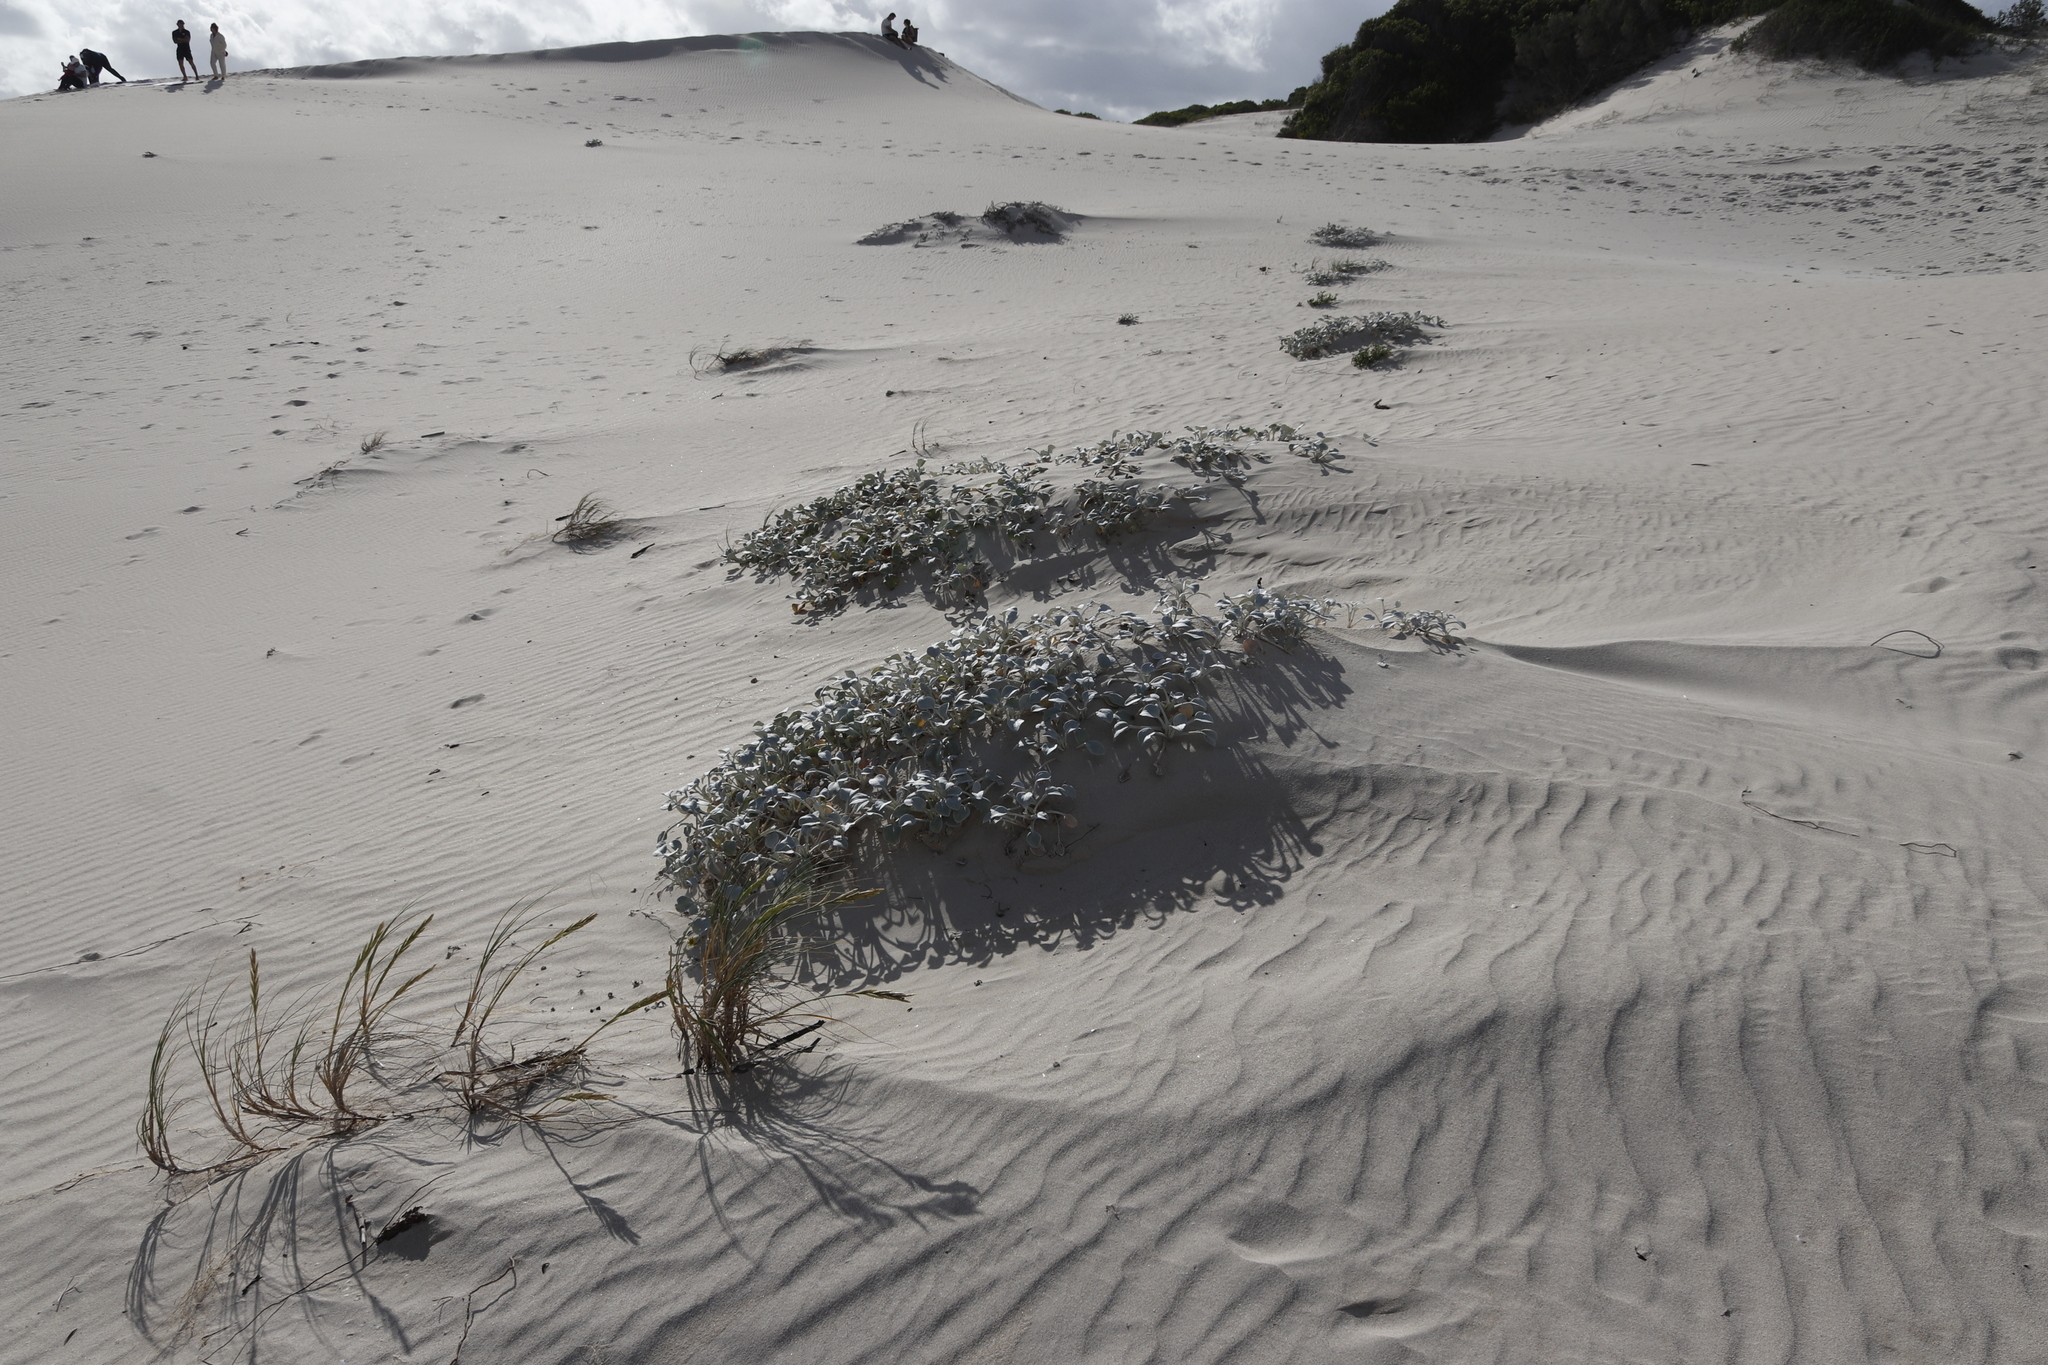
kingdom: Plantae
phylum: Tracheophyta
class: Magnoliopsida
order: Asterales
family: Asteraceae
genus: Arctotheca
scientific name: Arctotheca populifolia
